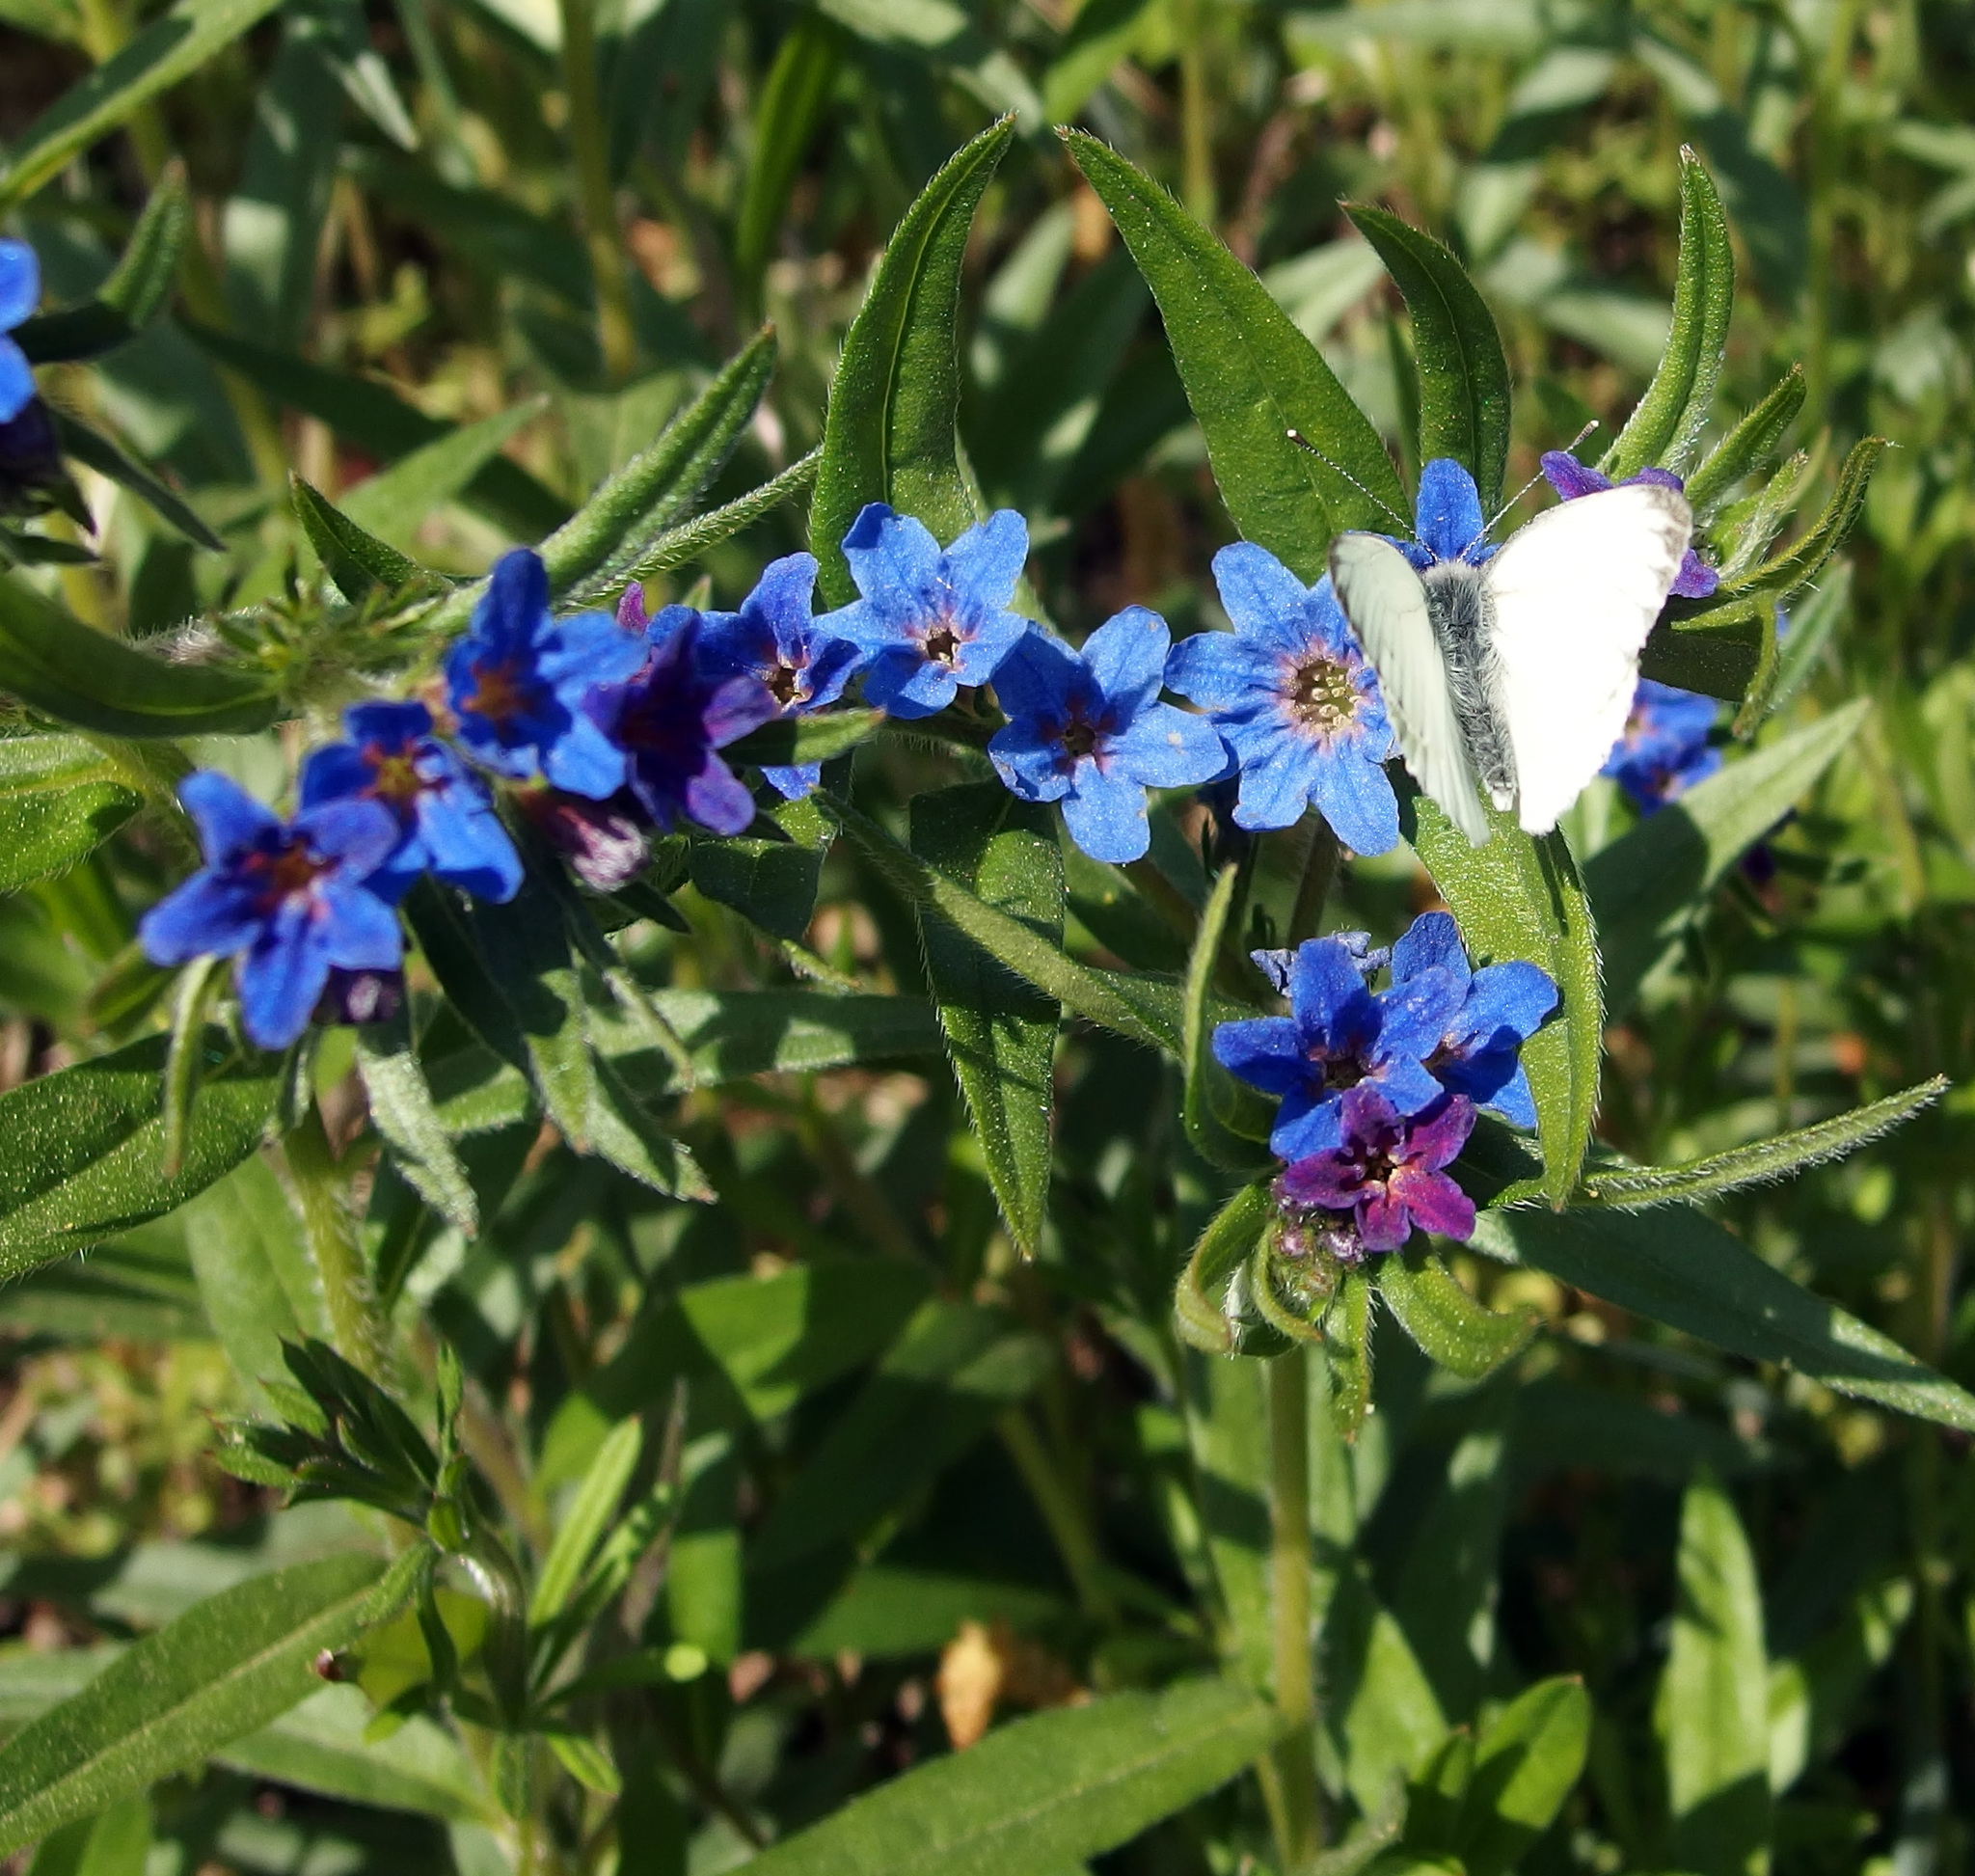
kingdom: Plantae
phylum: Tracheophyta
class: Magnoliopsida
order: Boraginales
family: Boraginaceae
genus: Aegonychon
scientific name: Aegonychon purpurocaeruleum
